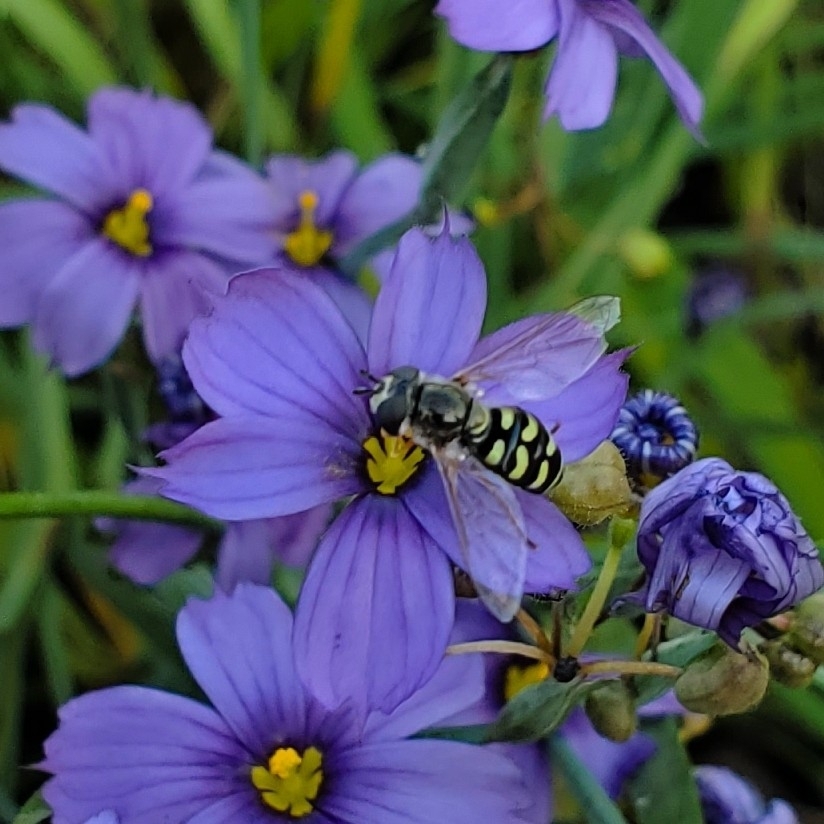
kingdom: Animalia
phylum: Arthropoda
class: Insecta
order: Diptera
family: Syrphidae
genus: Eupeodes
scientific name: Eupeodes volucris
